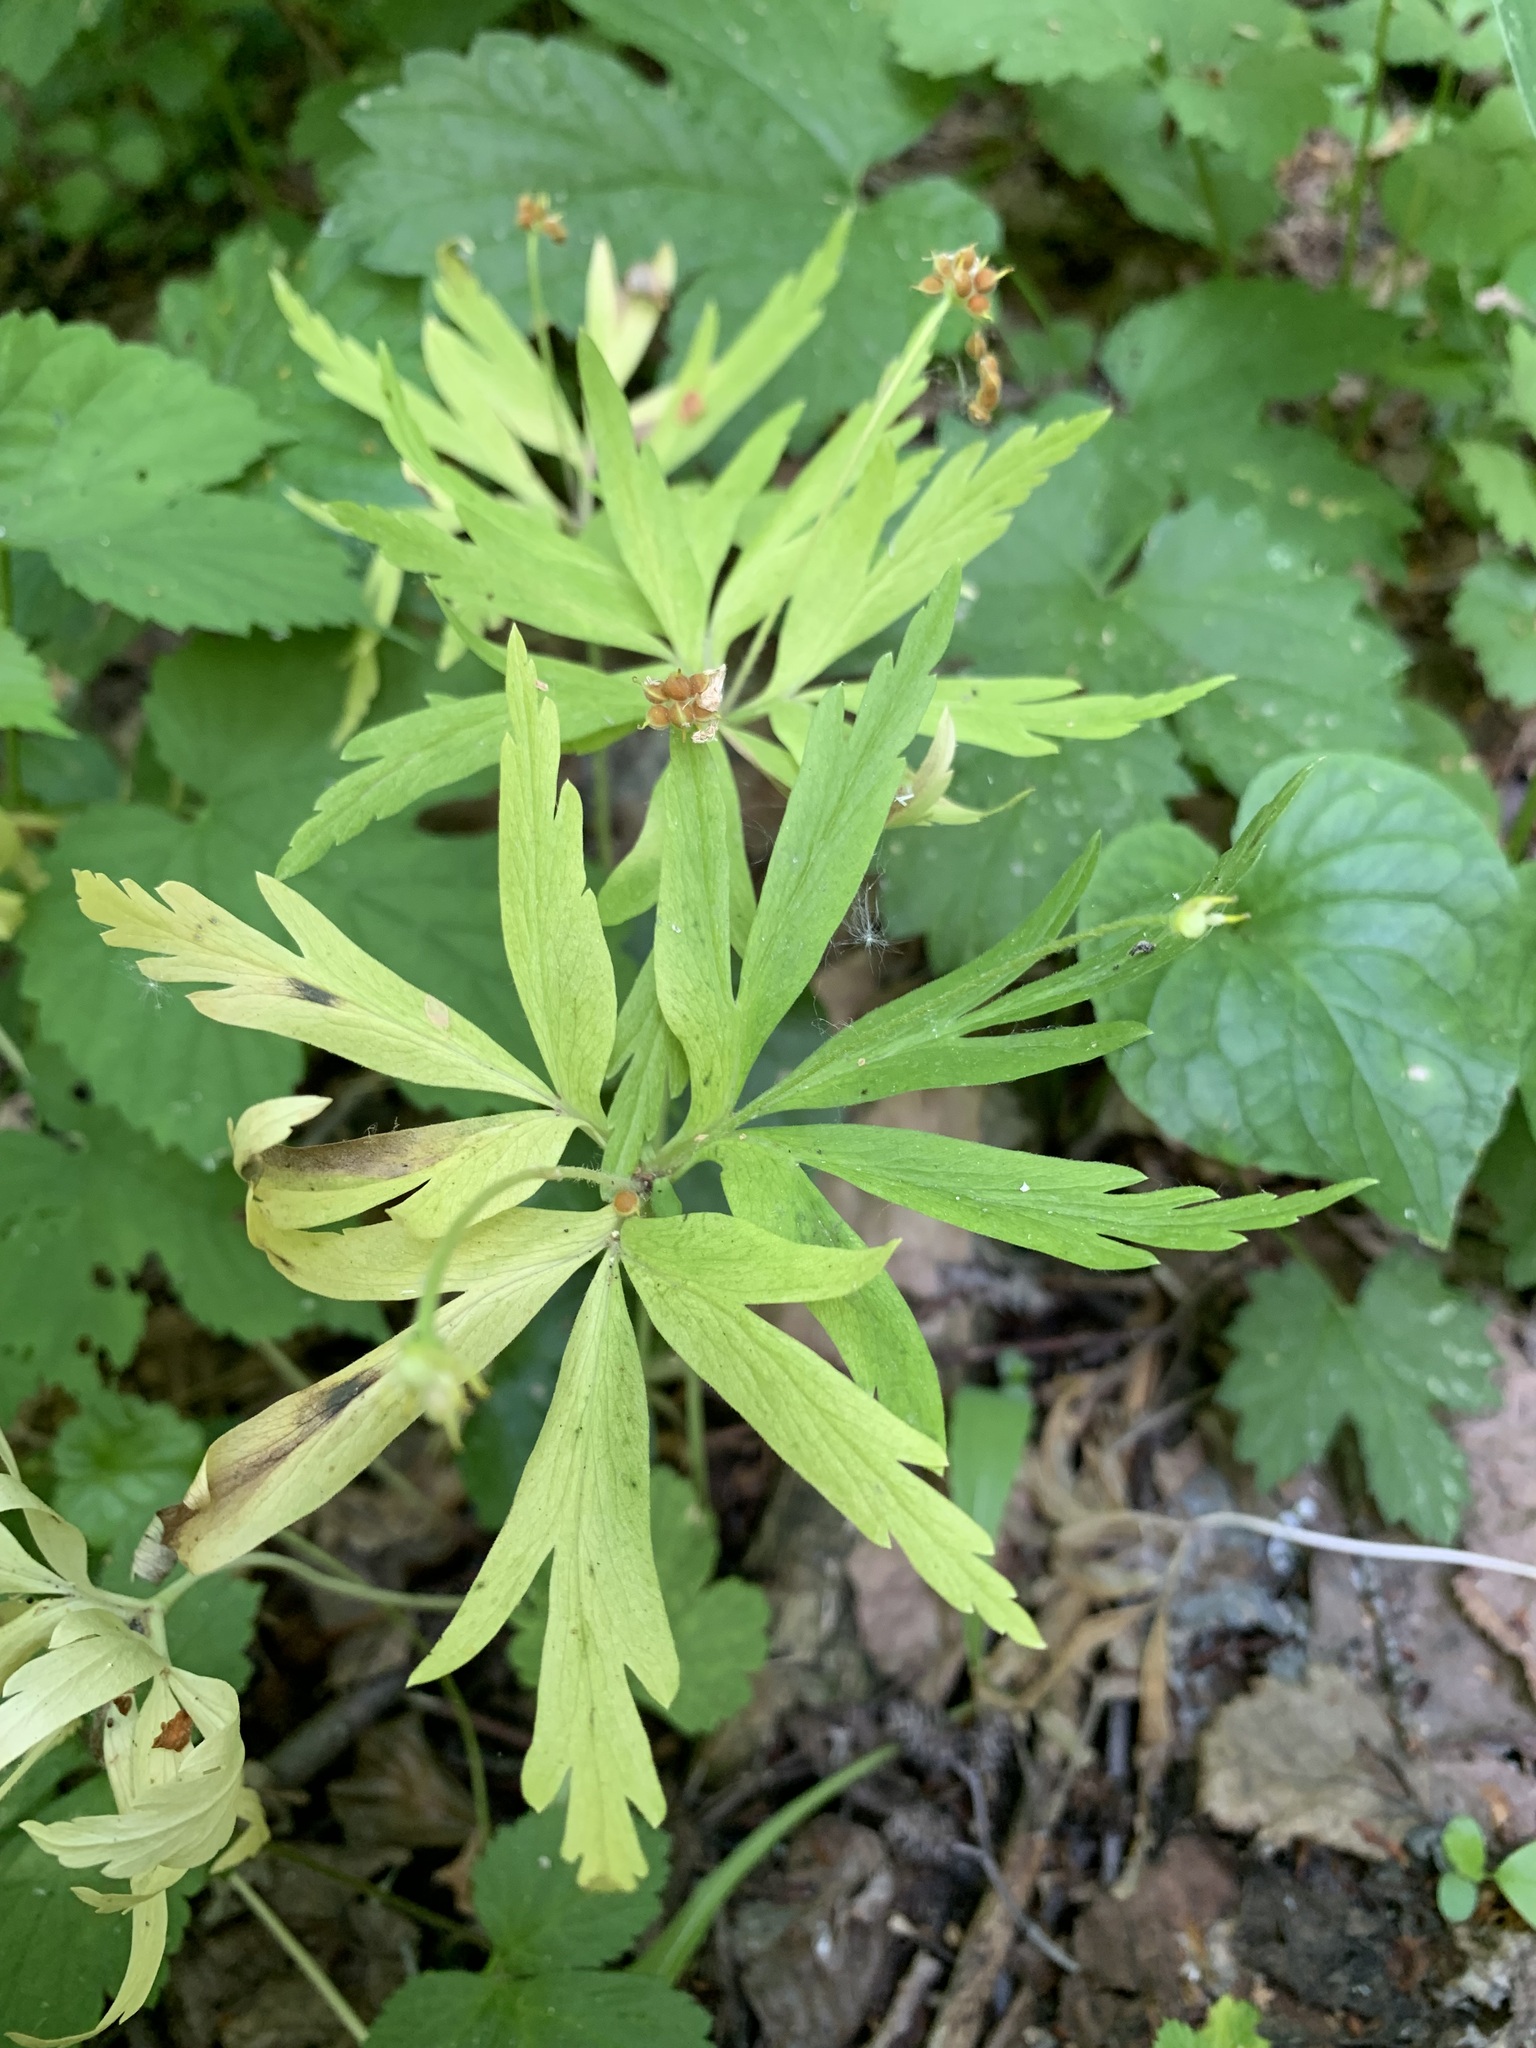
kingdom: Plantae
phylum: Tracheophyta
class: Magnoliopsida
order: Ranunculales
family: Ranunculaceae
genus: Anemone
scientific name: Anemone ranunculoides
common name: Yellow anemone
